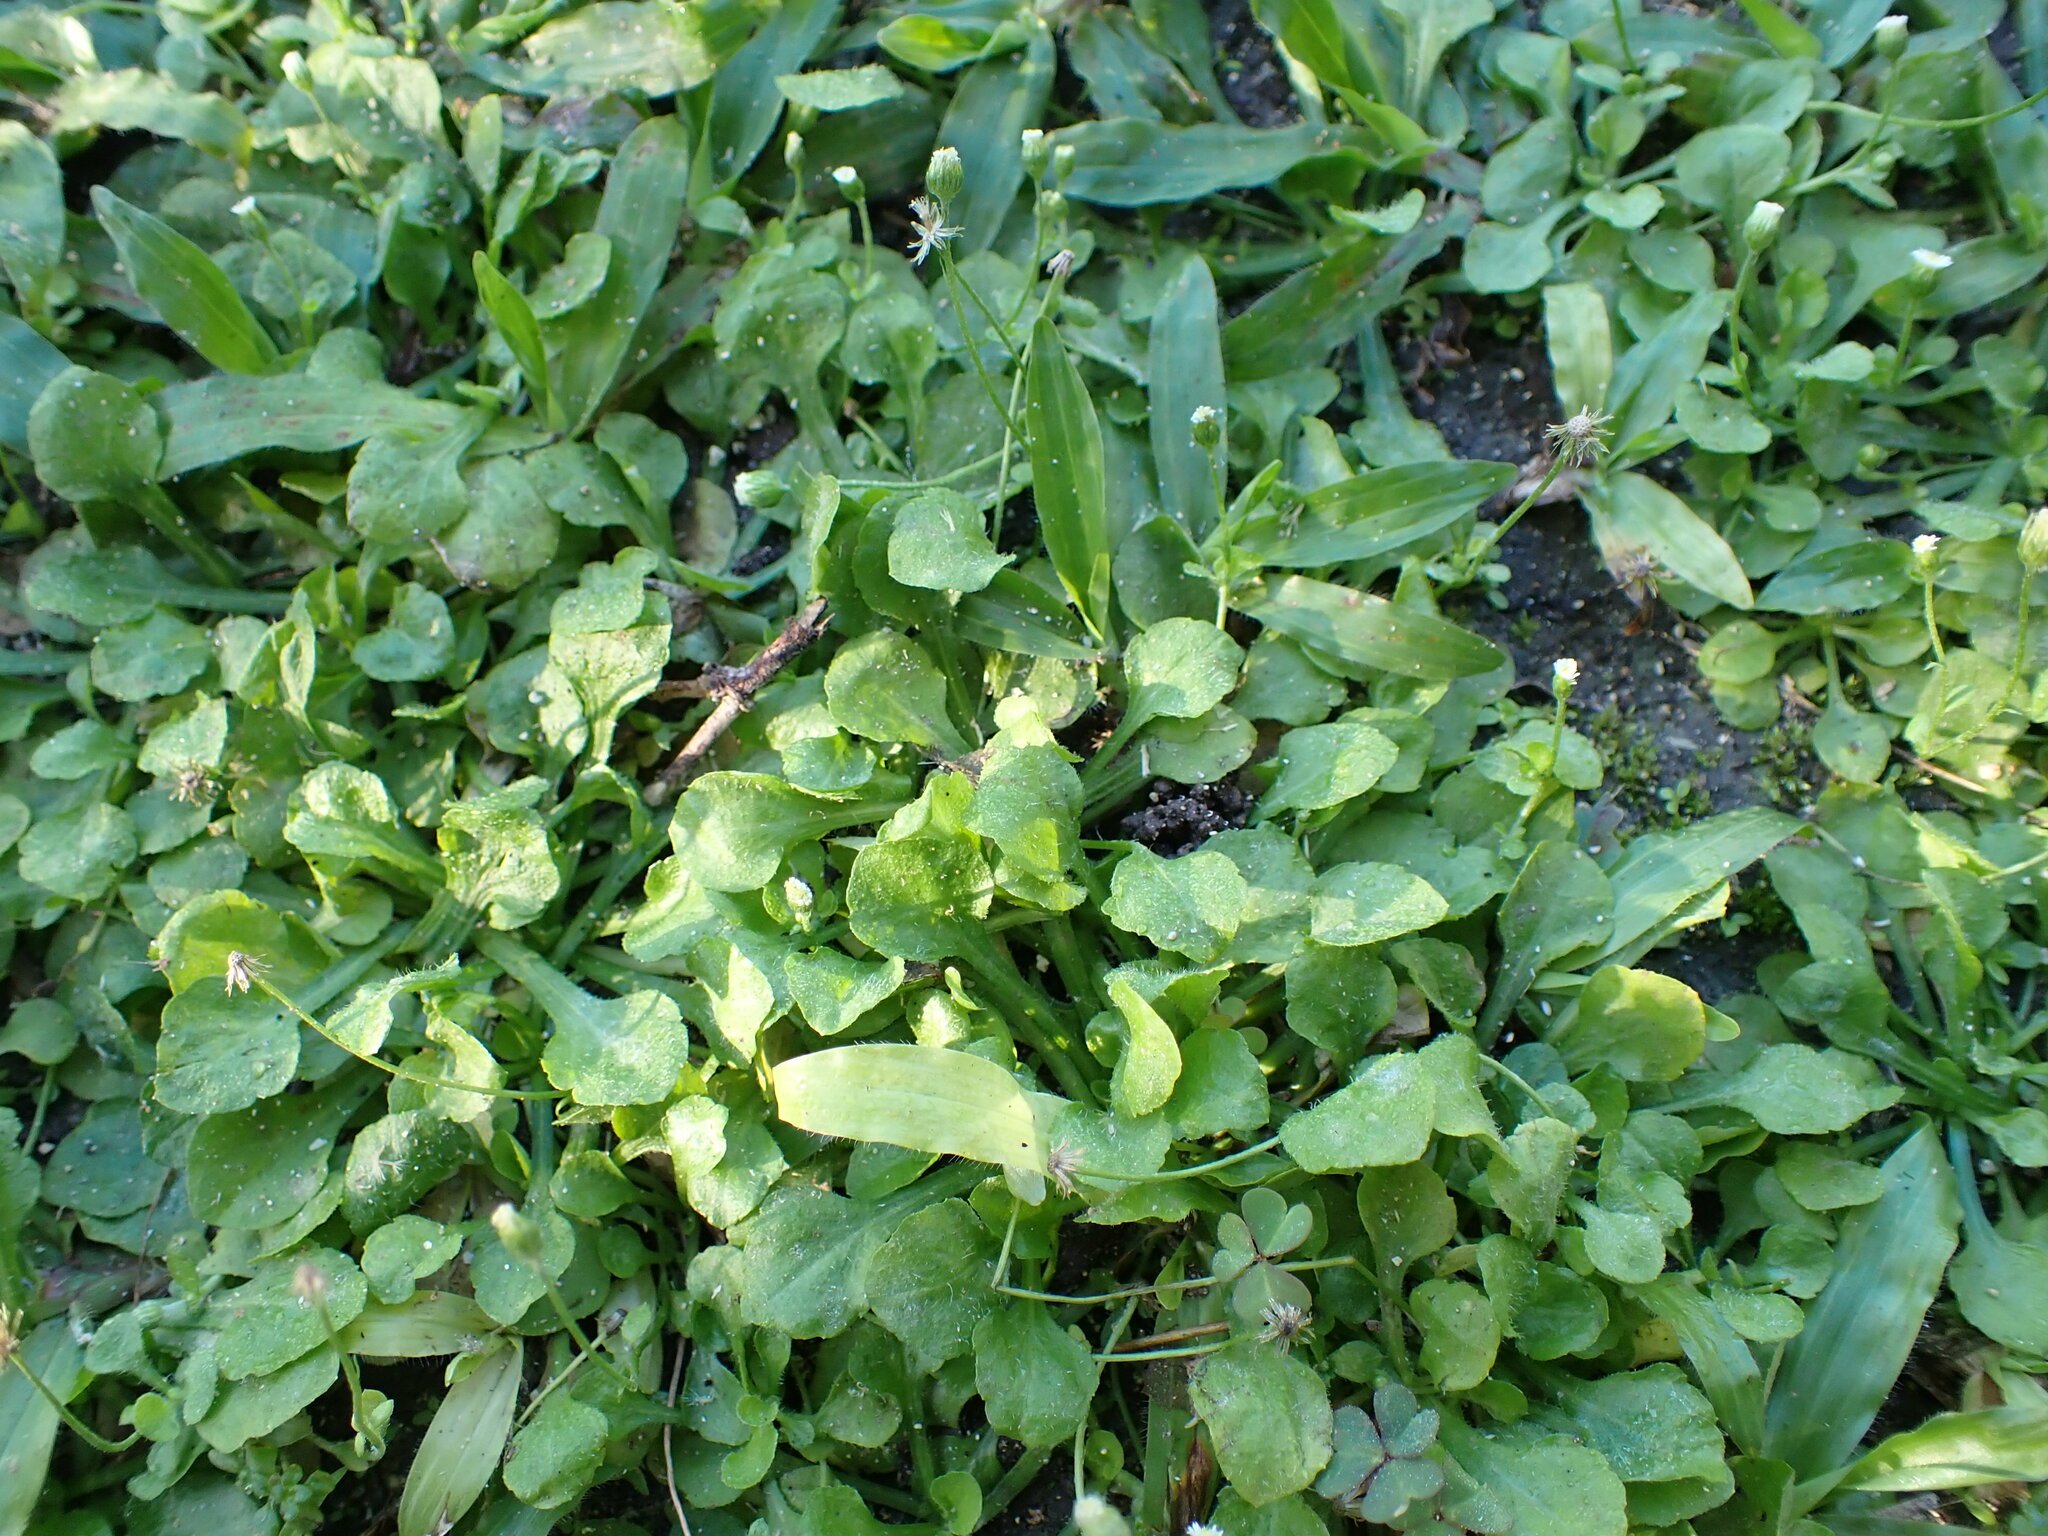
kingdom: Plantae
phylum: Tracheophyta
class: Magnoliopsida
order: Asterales
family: Asteraceae
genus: Erigeron
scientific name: Erigeron bellioides
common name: Bellorita
